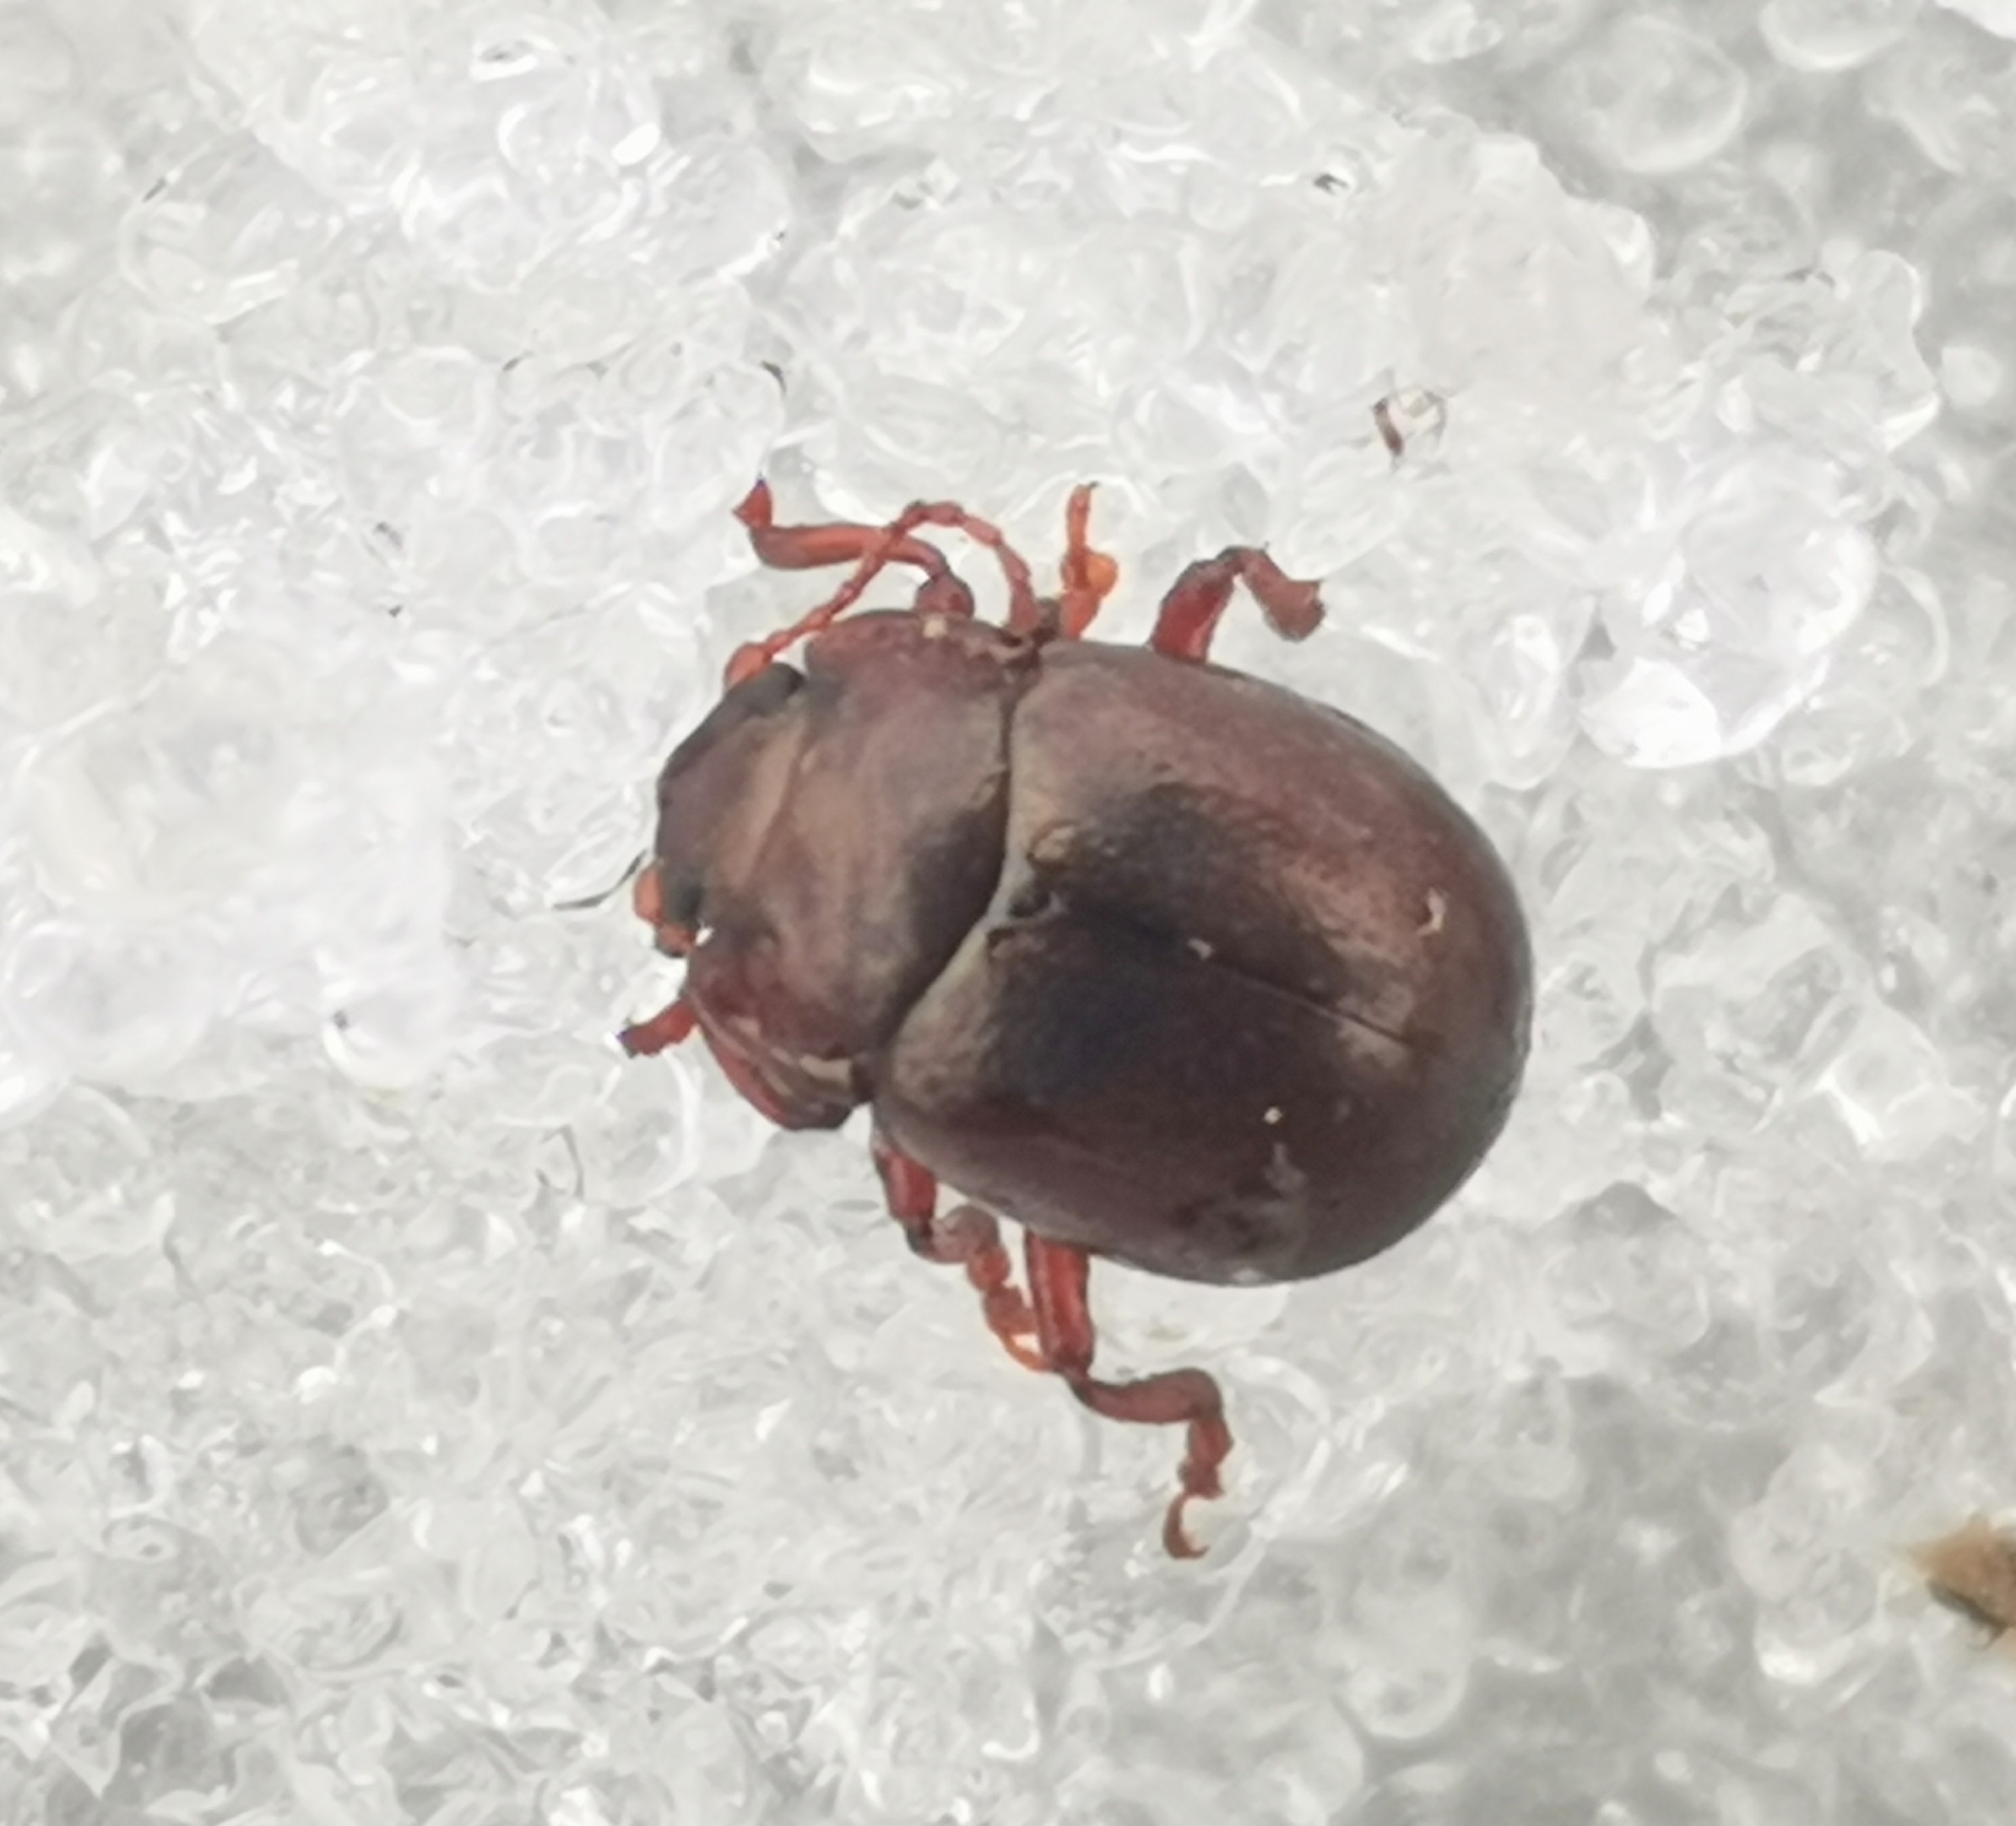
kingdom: Animalia
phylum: Arthropoda
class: Insecta
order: Coleoptera
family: Chrysomelidae
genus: Chrysolina
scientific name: Chrysolina staphylaea
